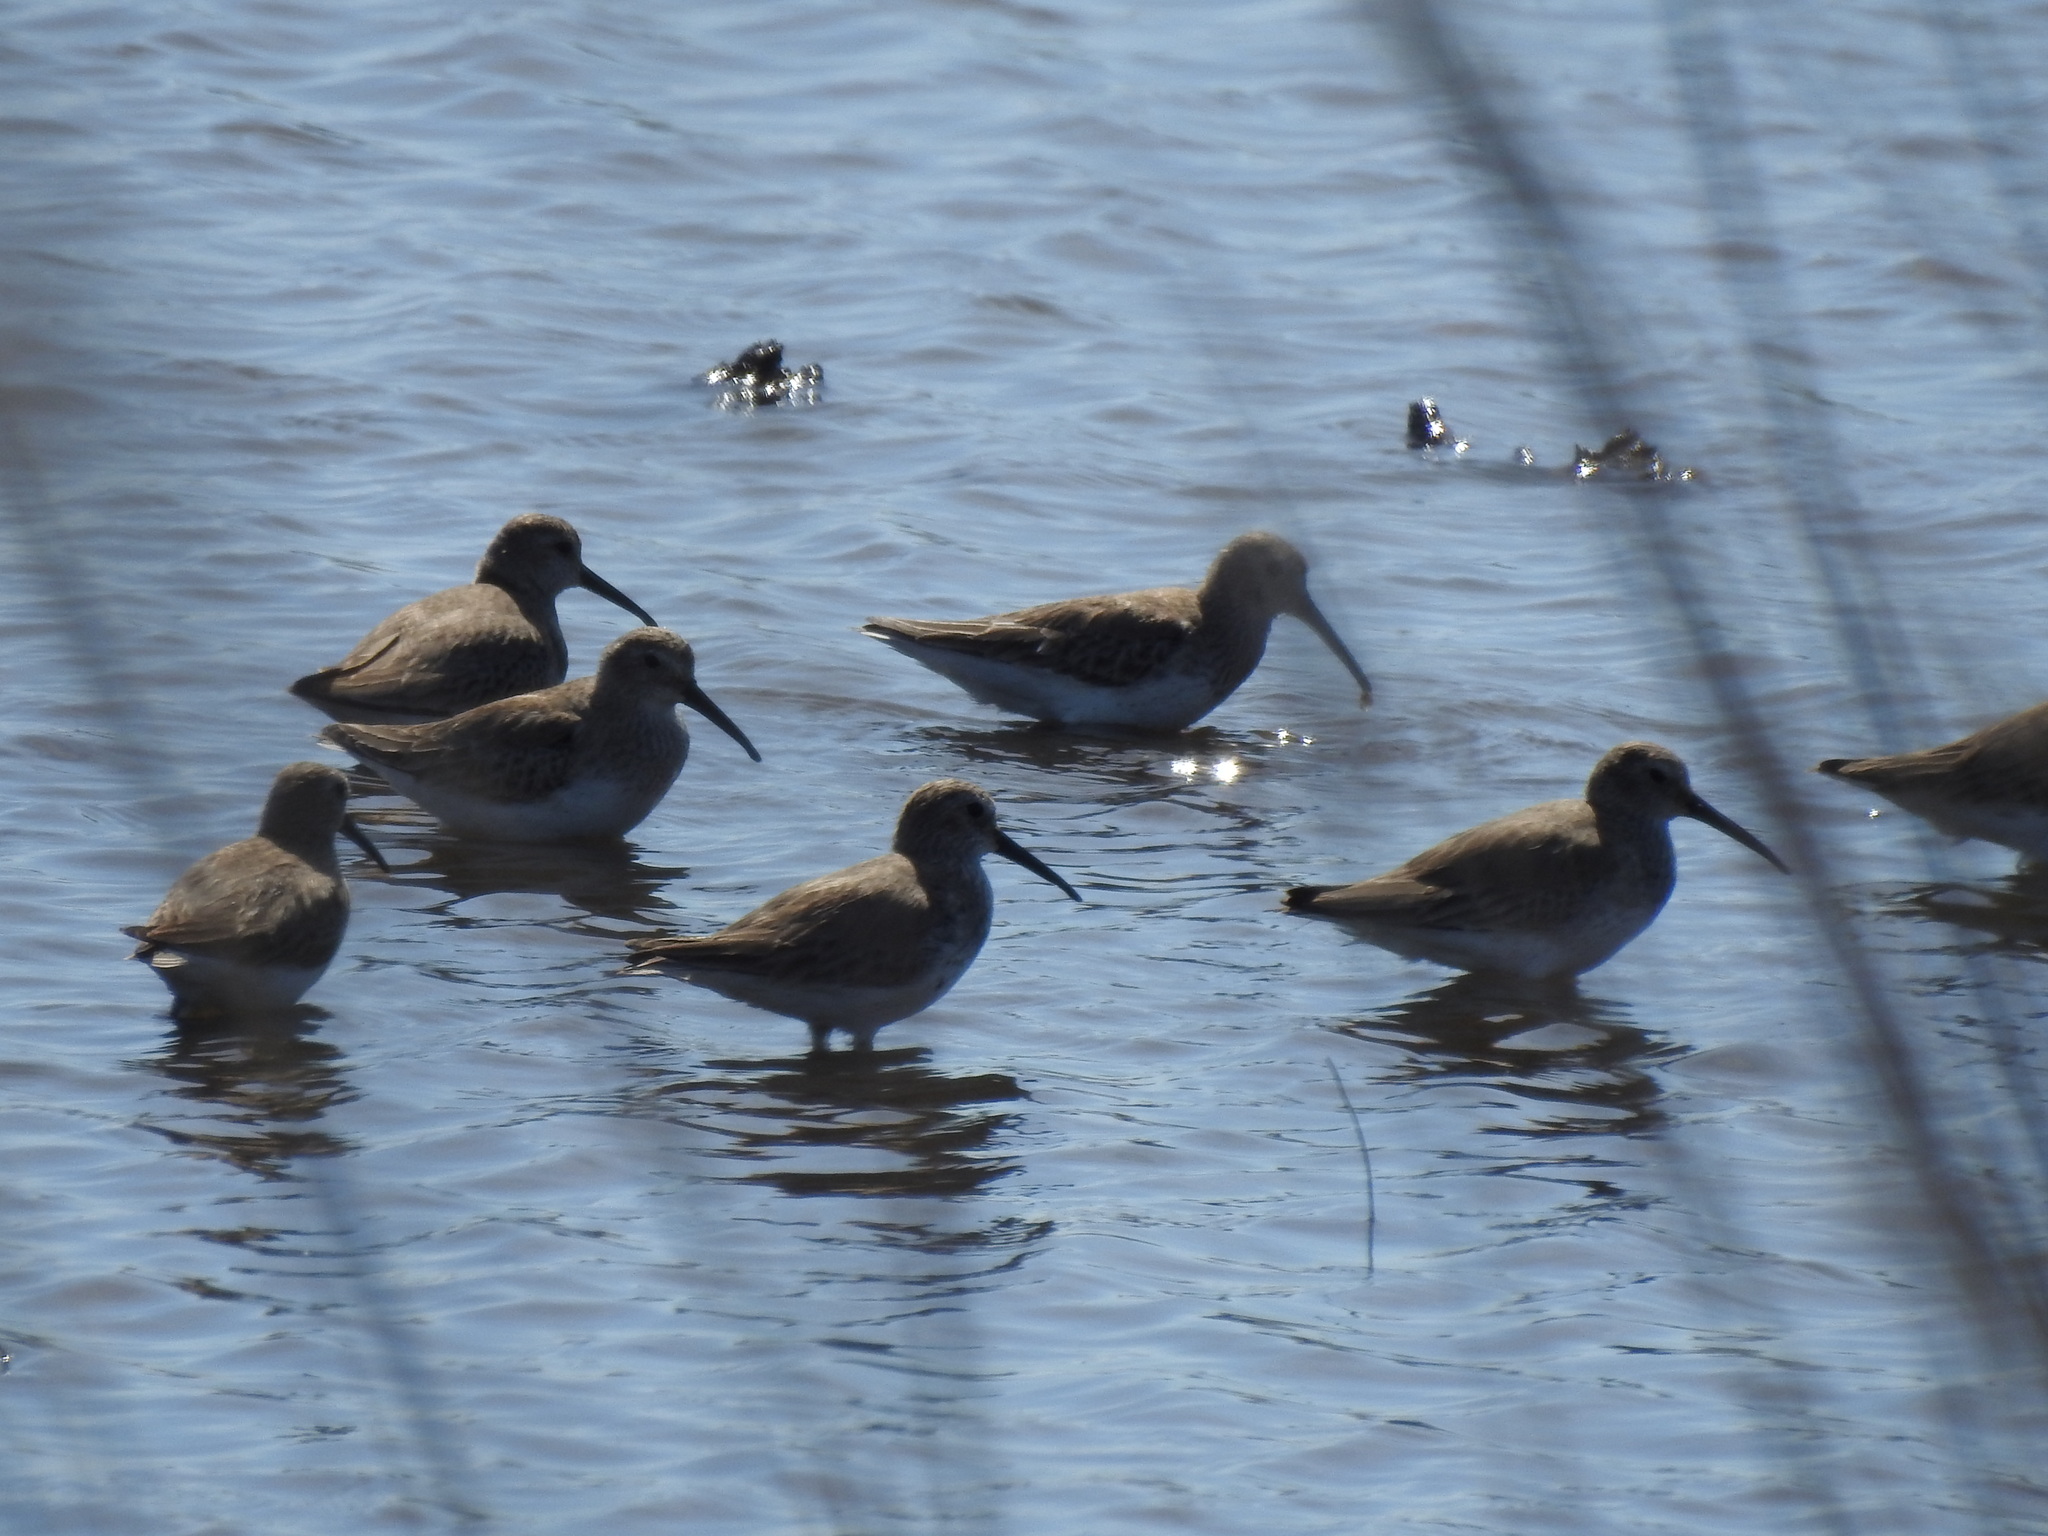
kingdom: Animalia
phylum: Chordata
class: Aves
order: Charadriiformes
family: Scolopacidae
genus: Calidris
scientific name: Calidris alpina
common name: Dunlin
